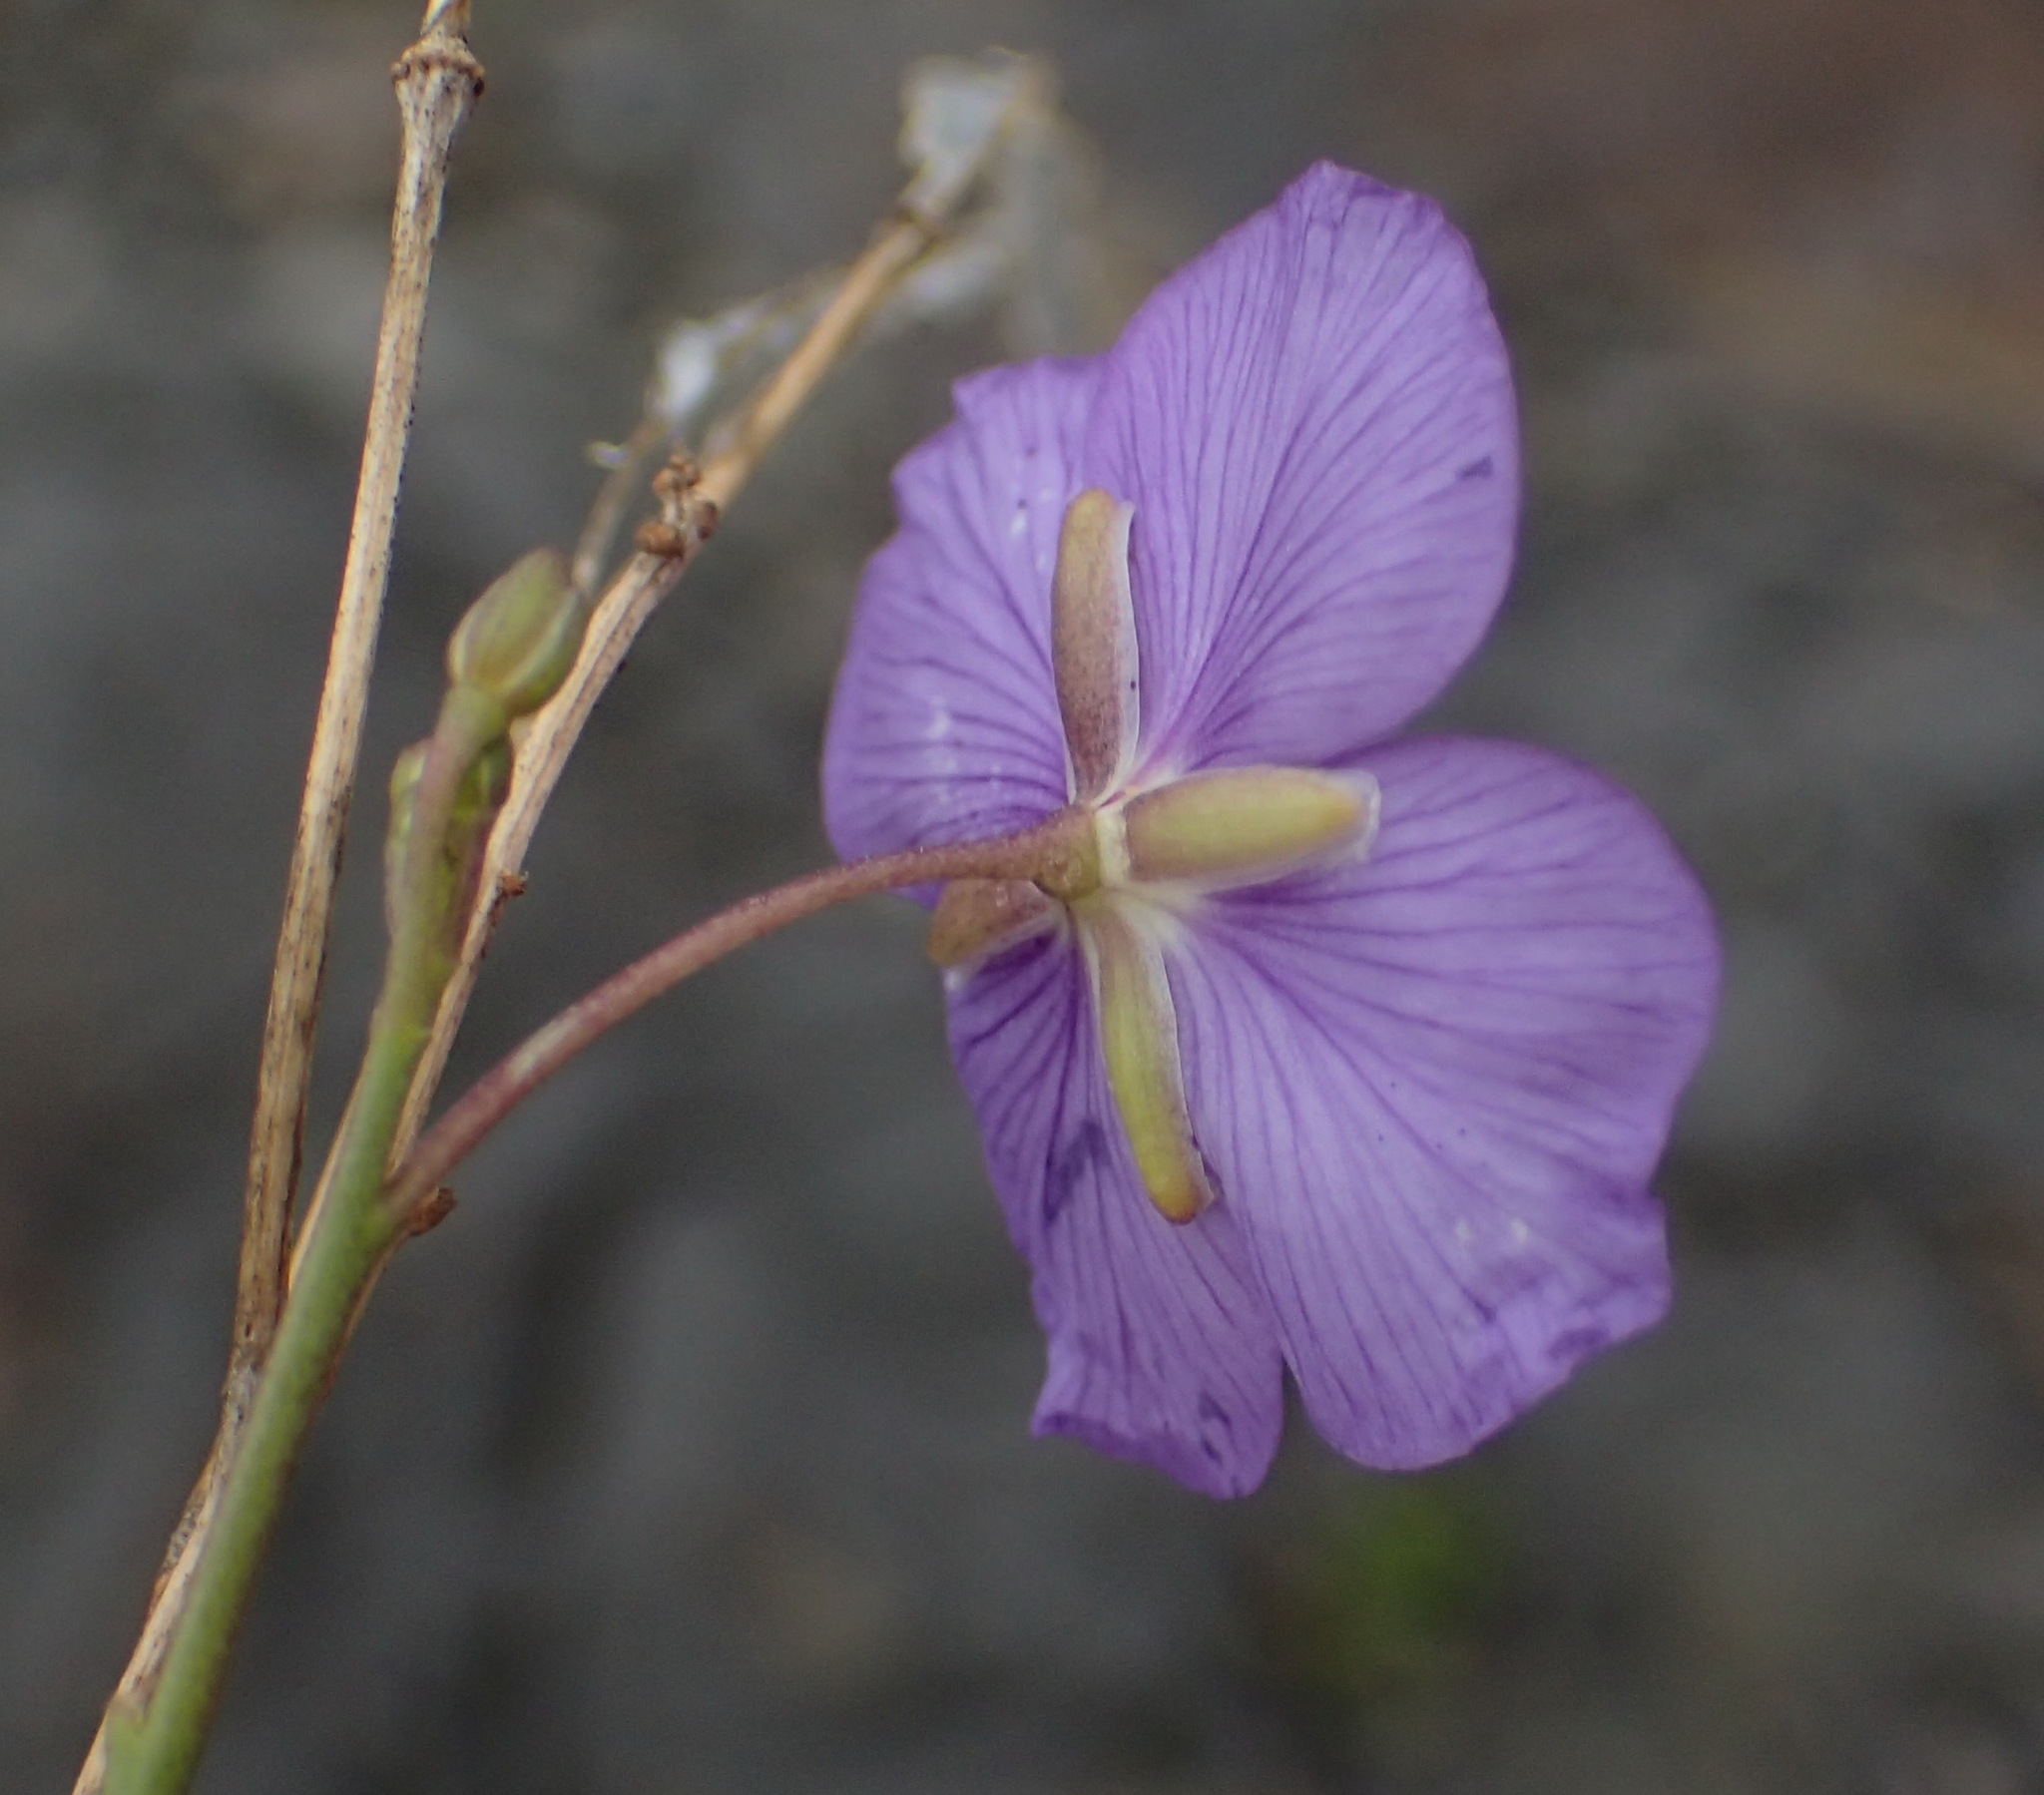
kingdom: Plantae
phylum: Tracheophyta
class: Magnoliopsida
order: Brassicales
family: Brassicaceae
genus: Heliophila
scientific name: Heliophila suavissima
